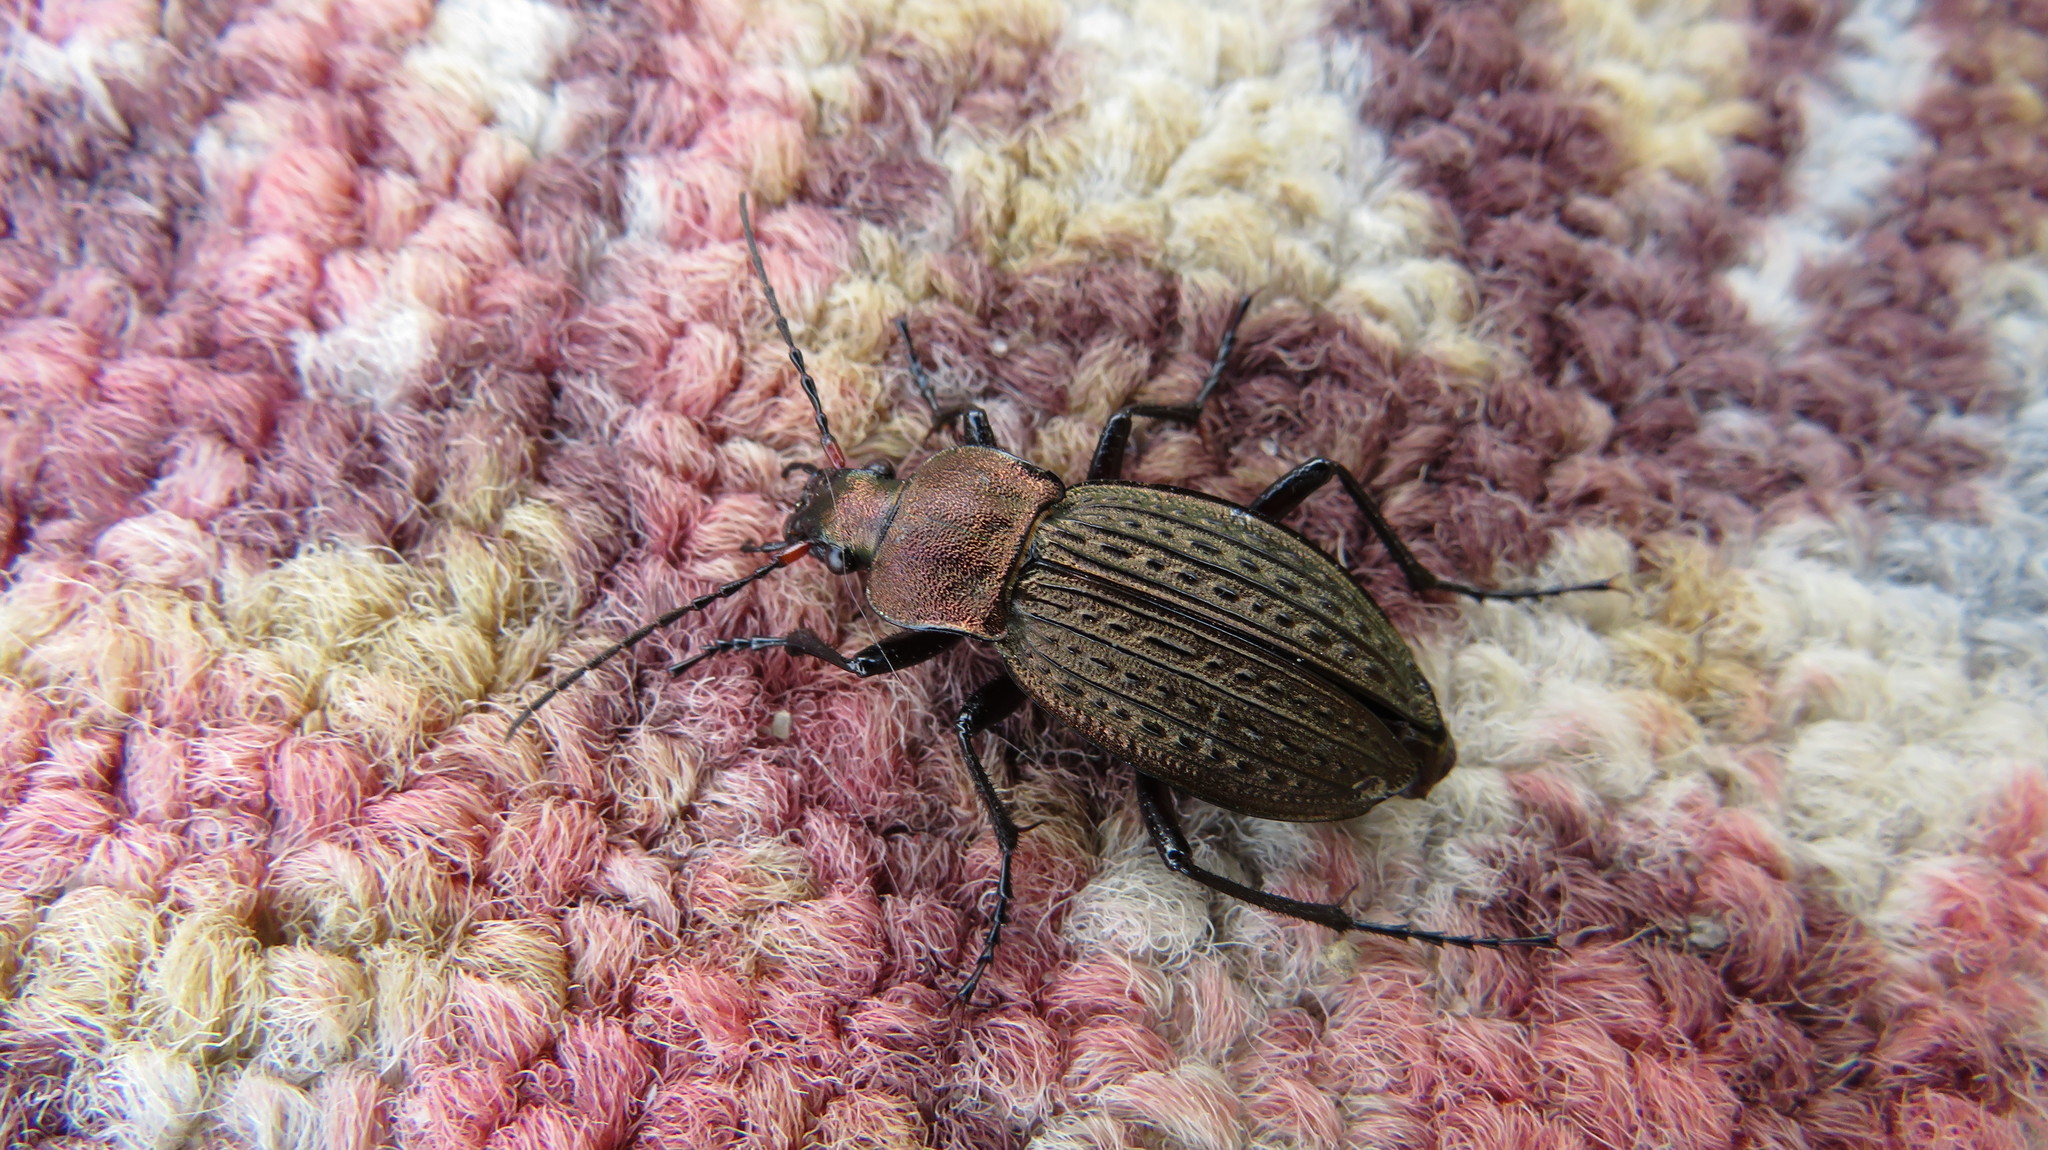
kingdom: Animalia
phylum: Arthropoda
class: Insecta
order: Coleoptera
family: Carabidae
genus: Carabus
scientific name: Carabus cancellatus
